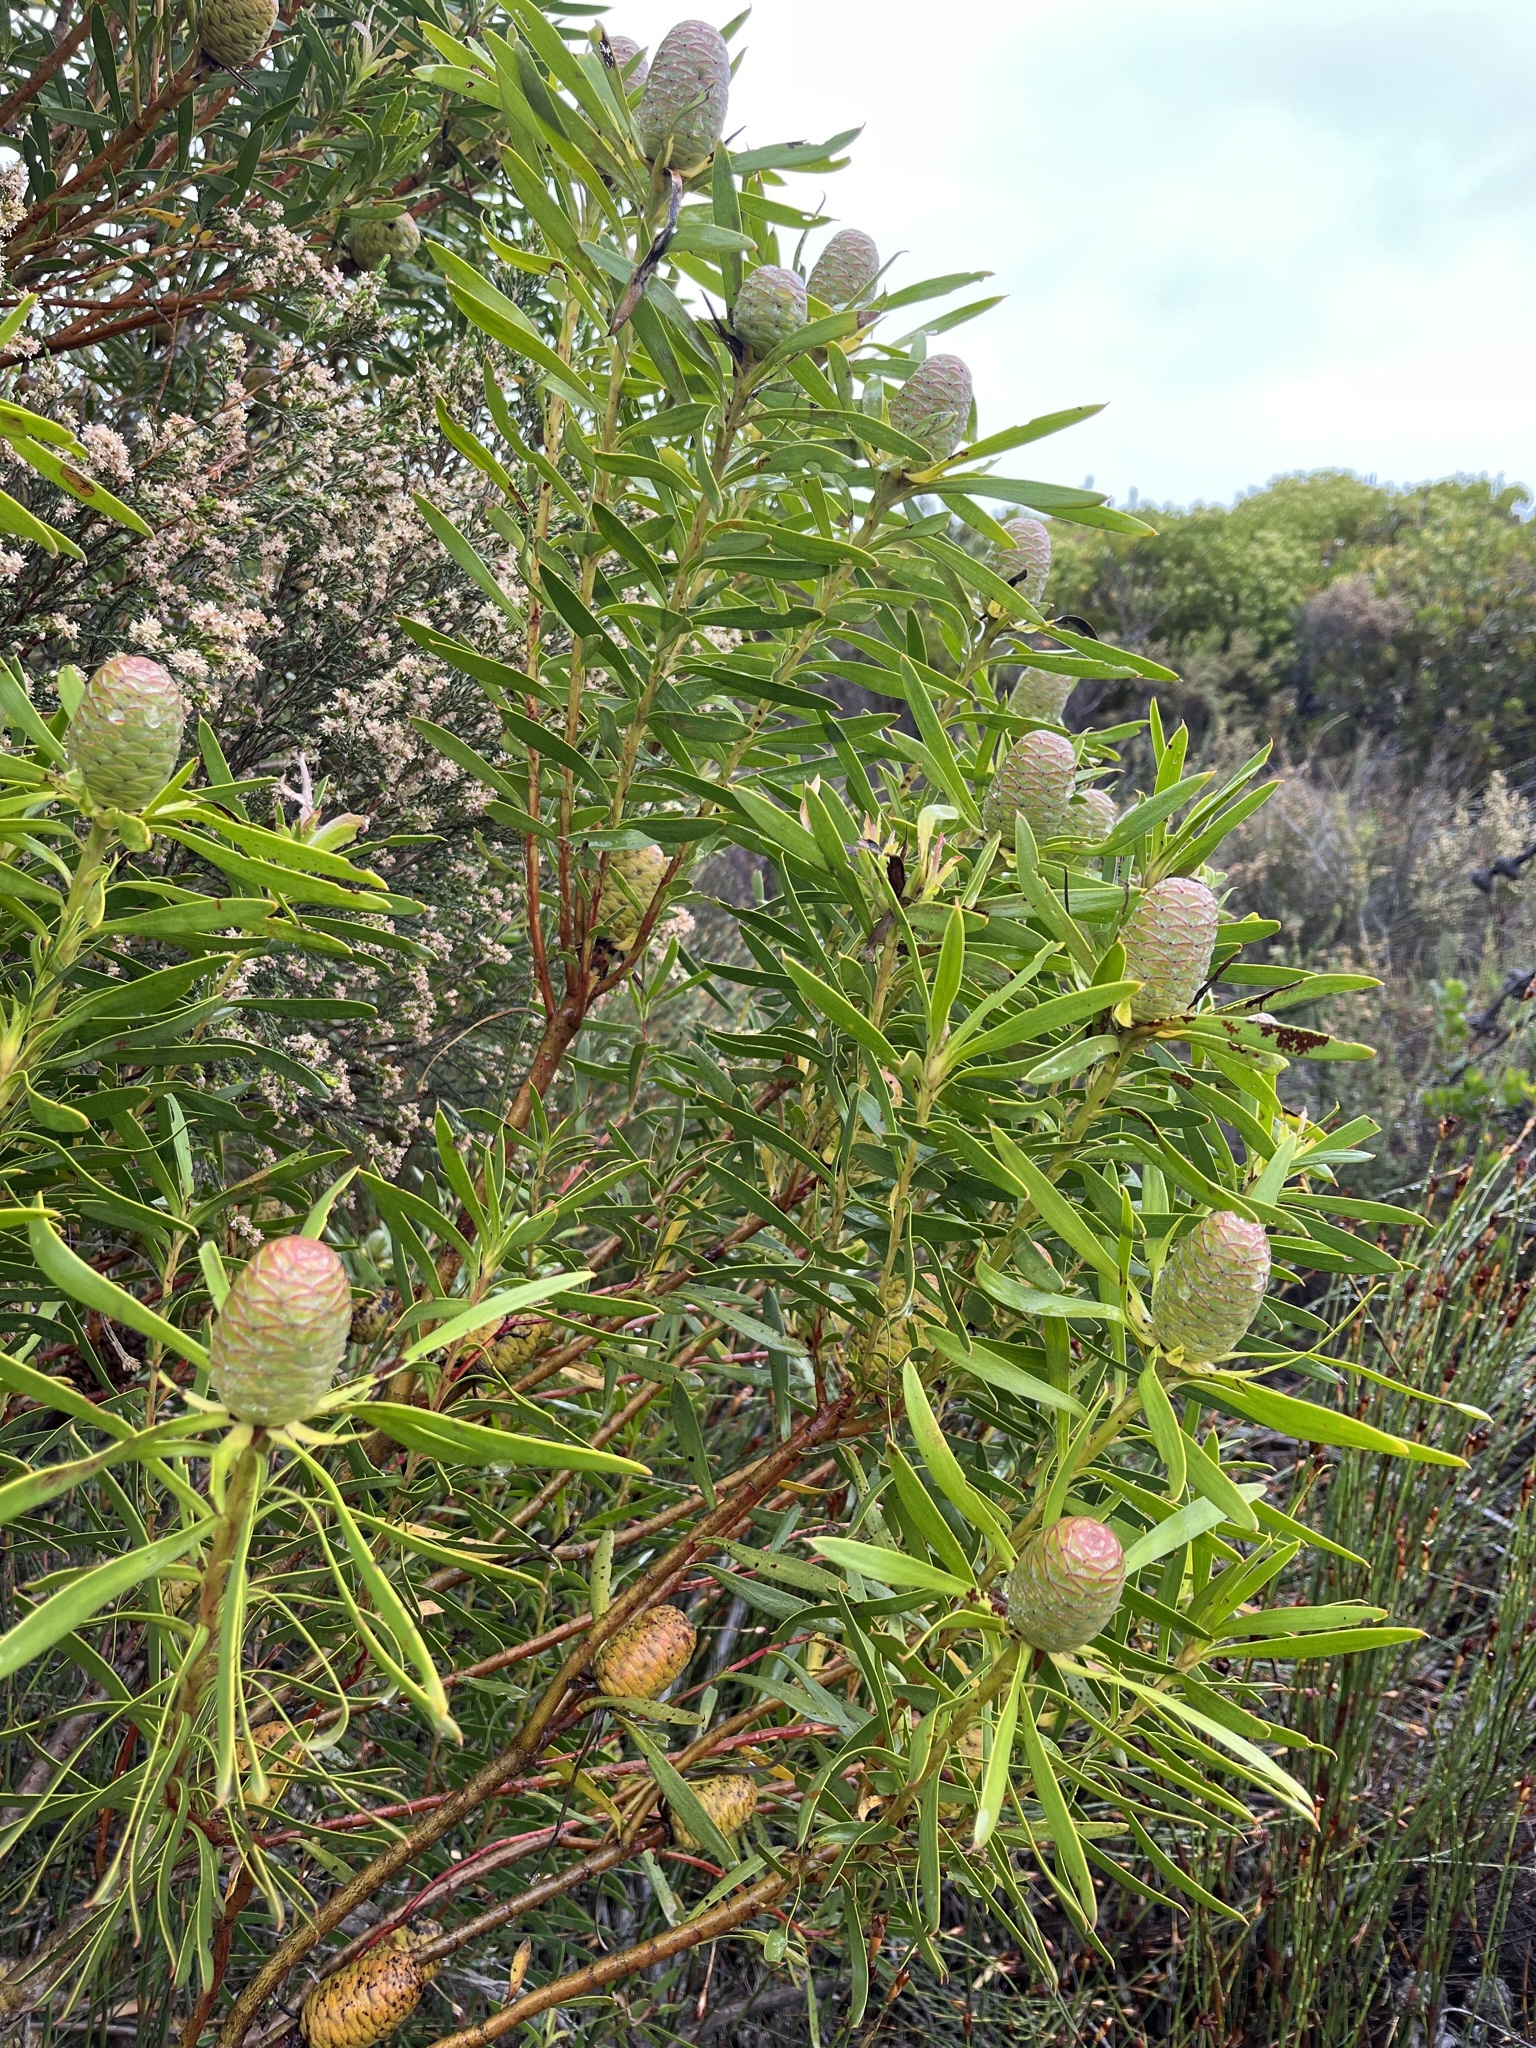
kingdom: Plantae
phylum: Tracheophyta
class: Magnoliopsida
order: Proteales
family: Proteaceae
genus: Leucadendron
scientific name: Leucadendron coniferum
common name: Dune conebush
